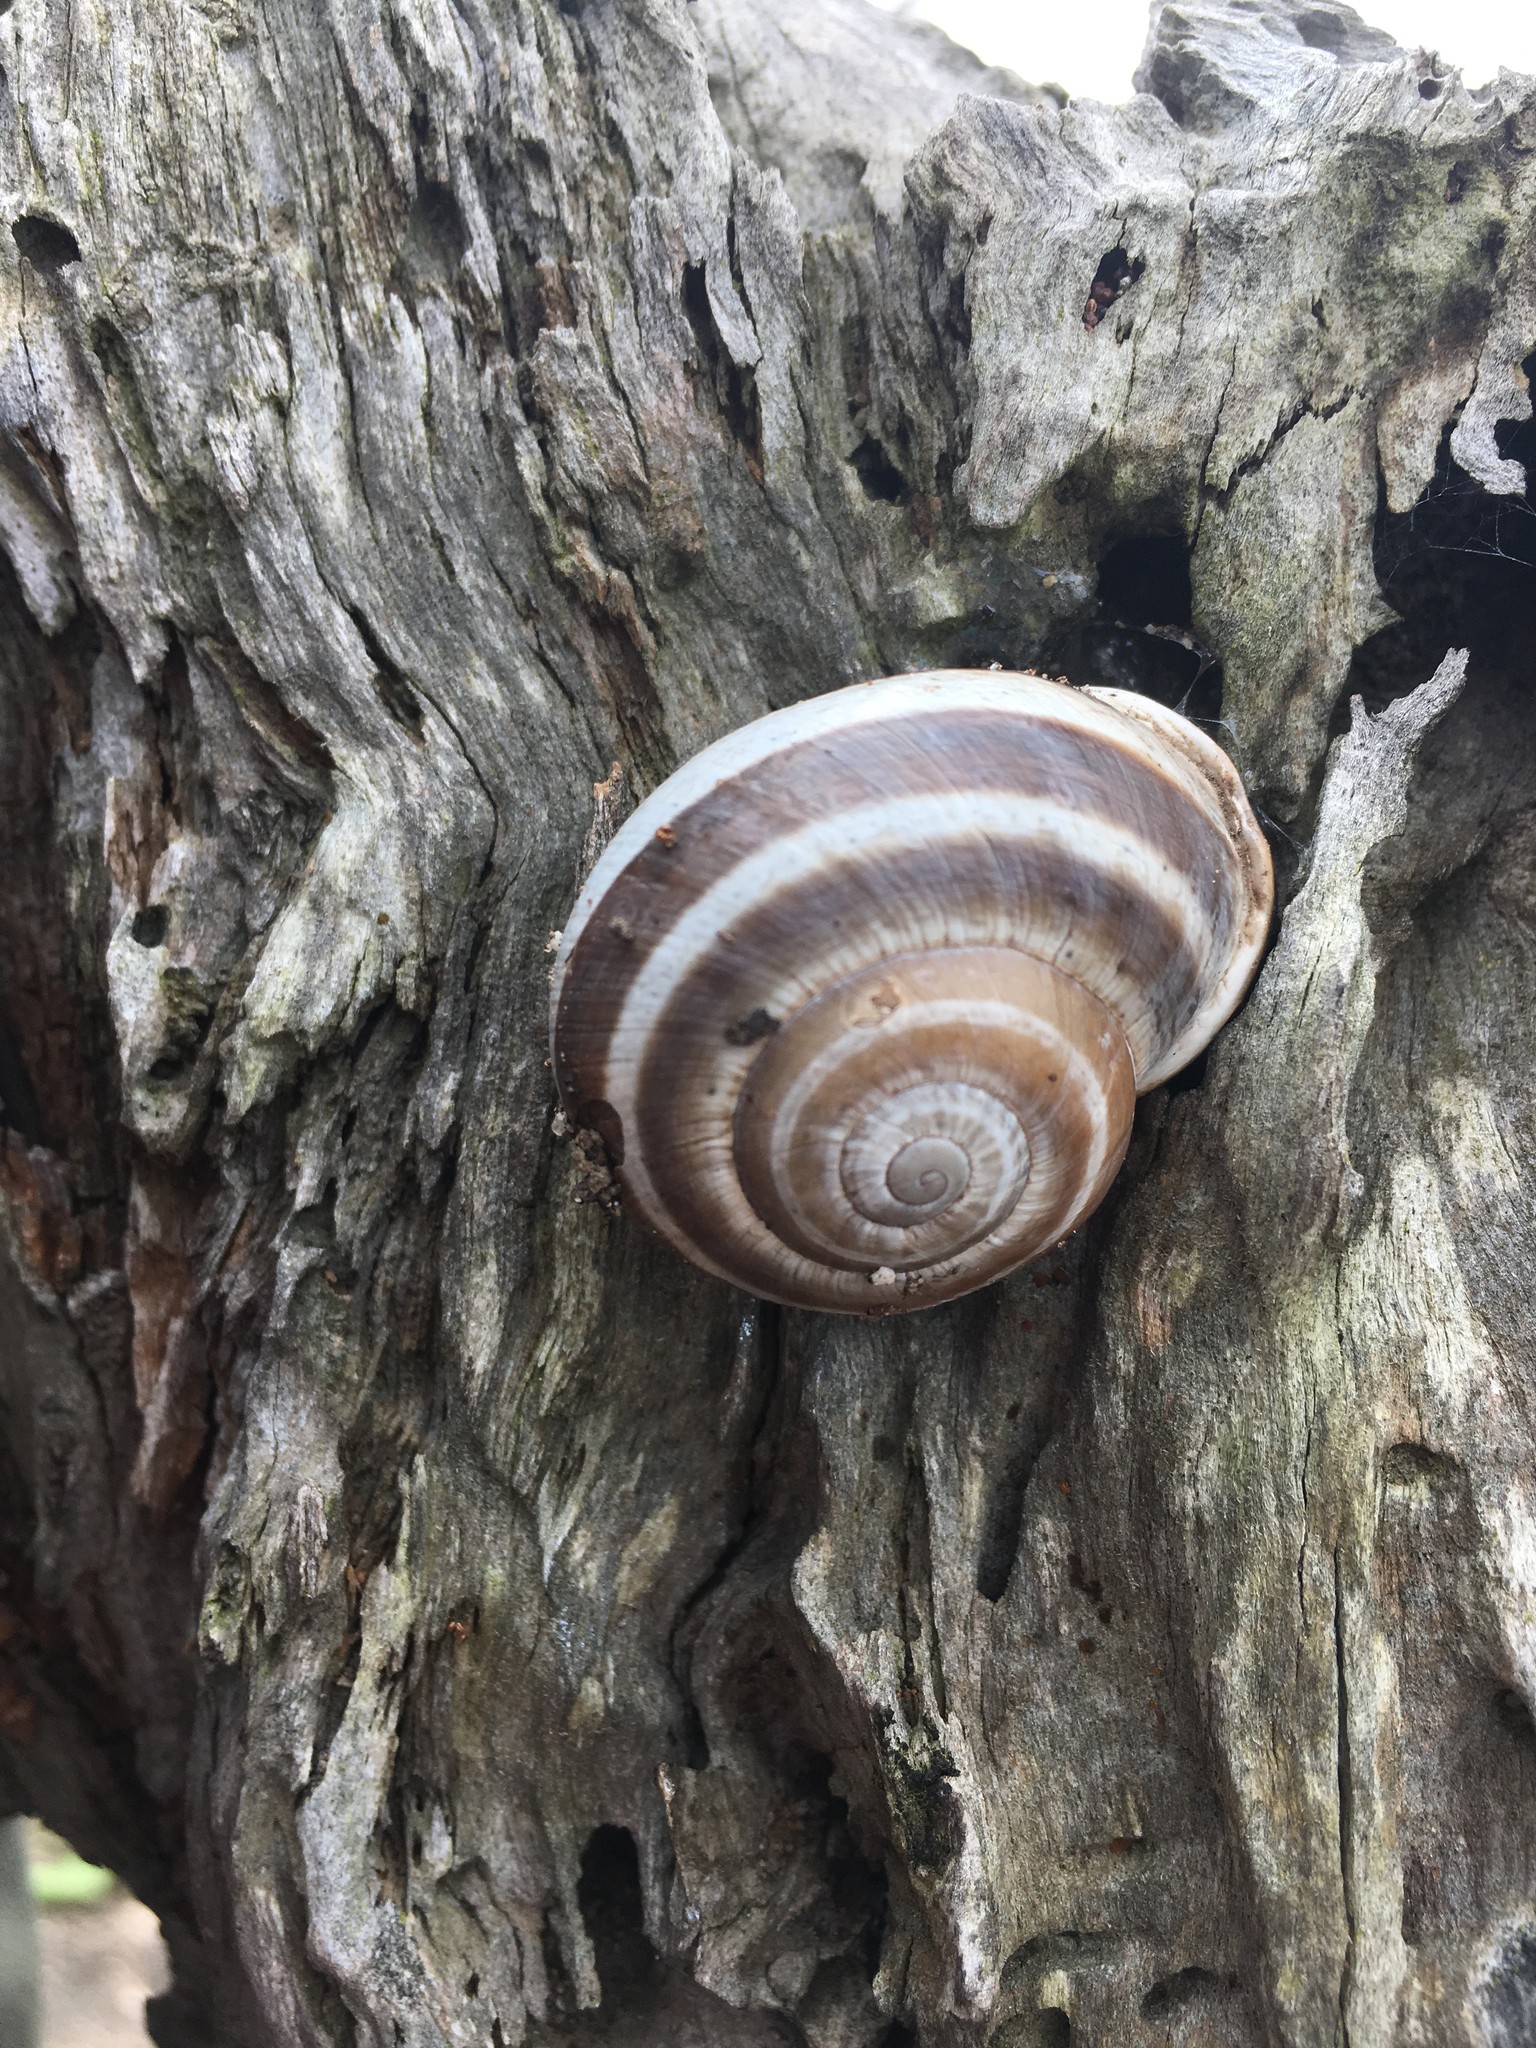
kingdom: Animalia
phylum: Mollusca
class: Gastropoda
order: Stylommatophora
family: Helicidae
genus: Otala
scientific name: Otala lactea
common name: Milk snail
